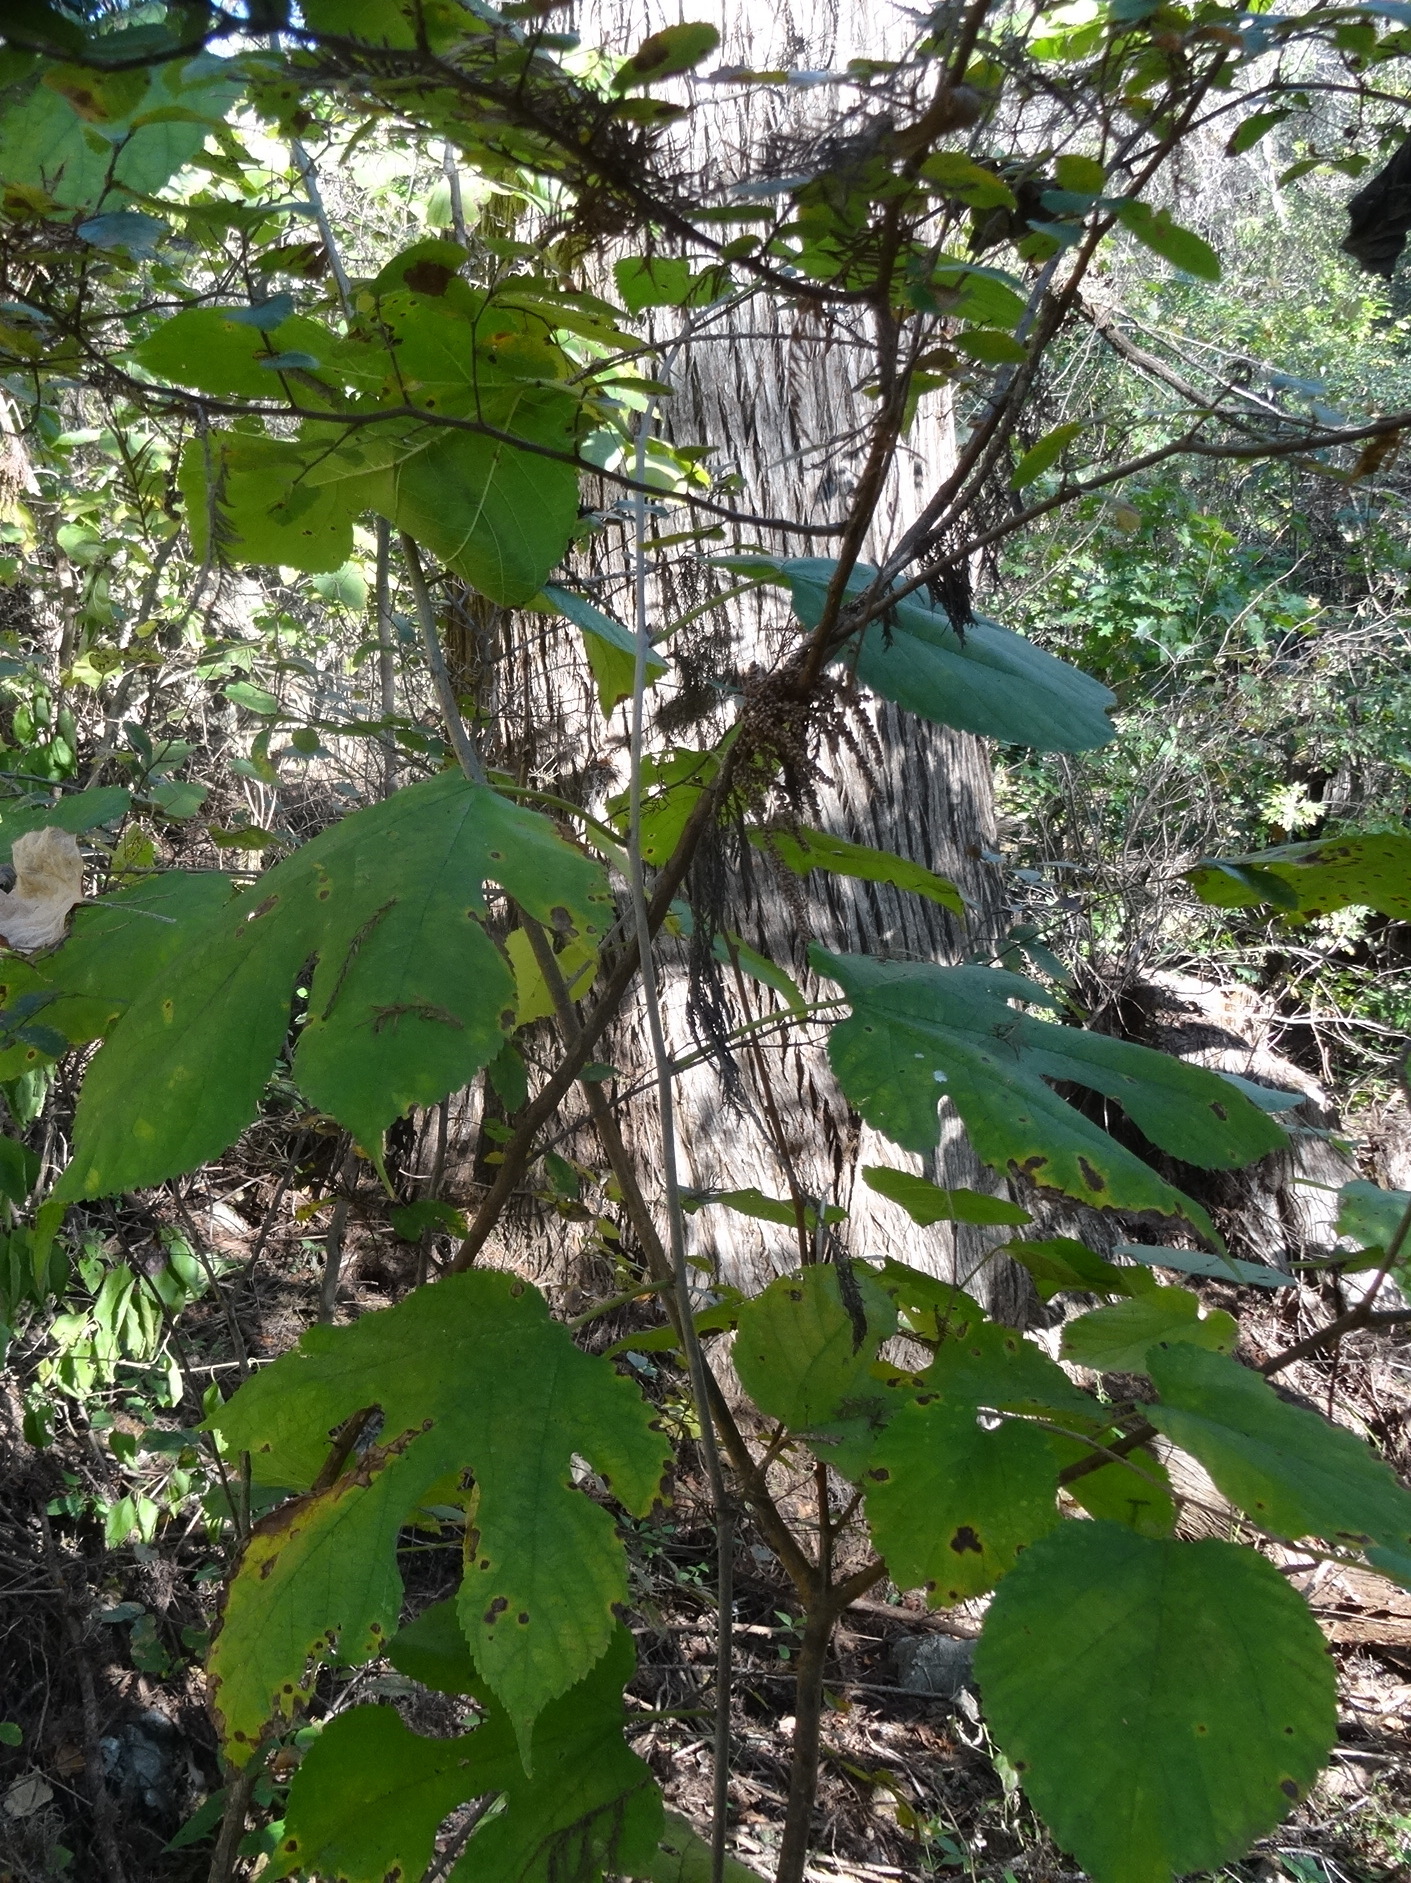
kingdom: Plantae
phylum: Tracheophyta
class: Magnoliopsida
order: Rosales
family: Moraceae
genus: Morus
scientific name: Morus rubra
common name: Red mulberry
